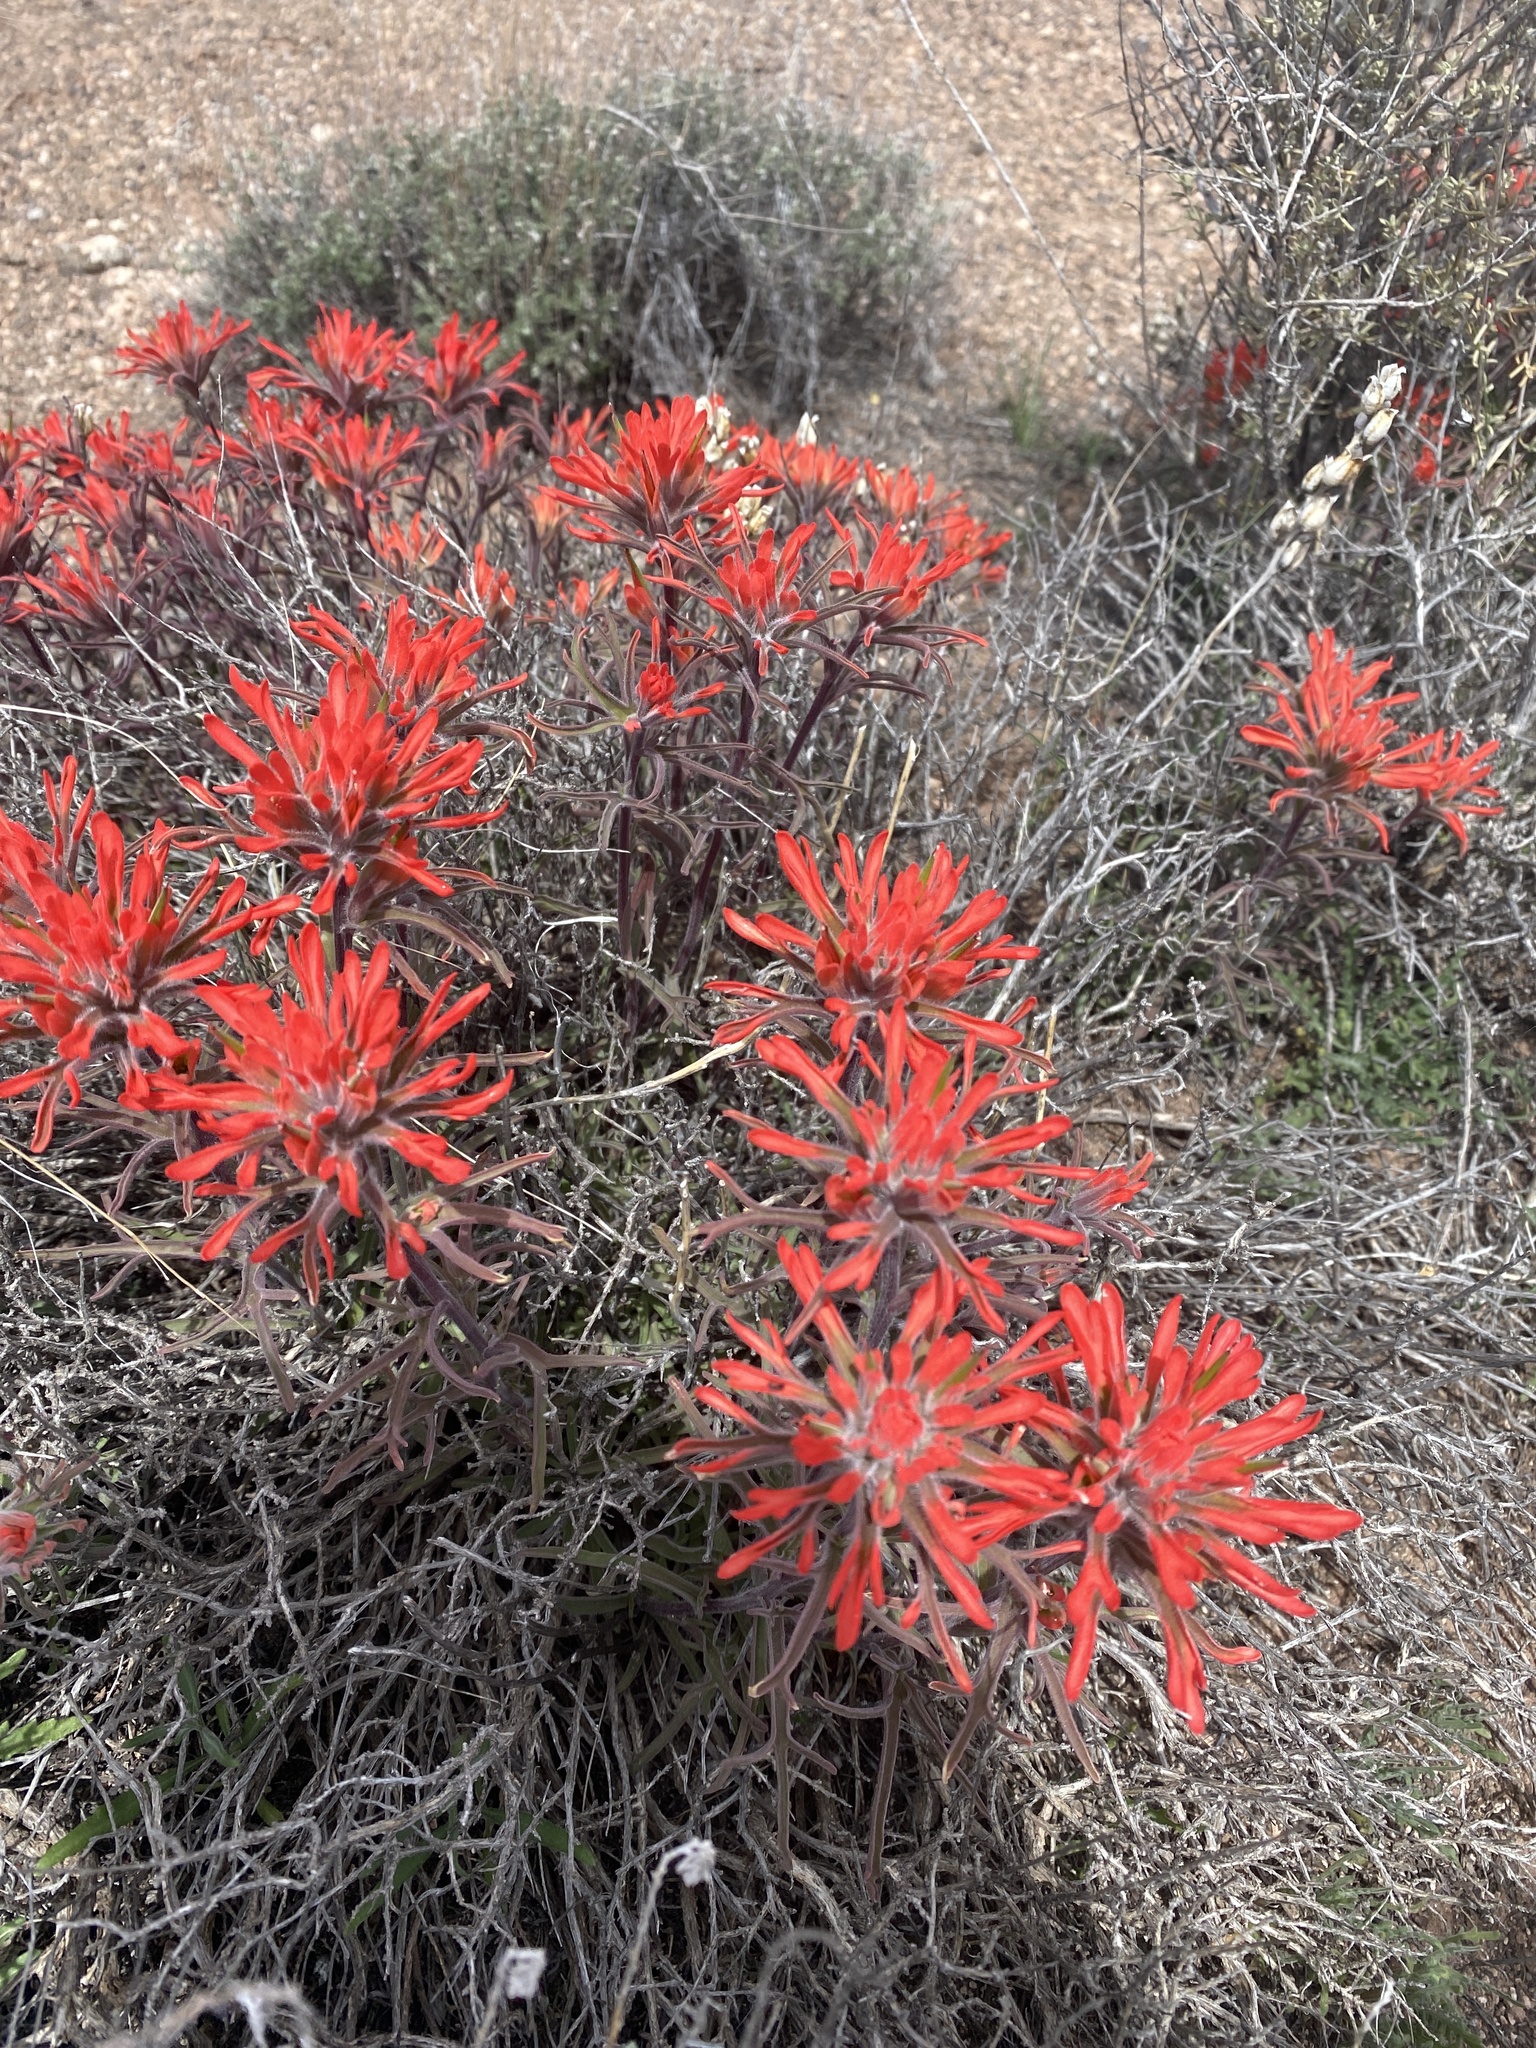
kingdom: Plantae
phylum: Tracheophyta
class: Magnoliopsida
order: Lamiales
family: Orobanchaceae
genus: Castilleja
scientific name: Castilleja chromosa
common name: Desert paintbrush
